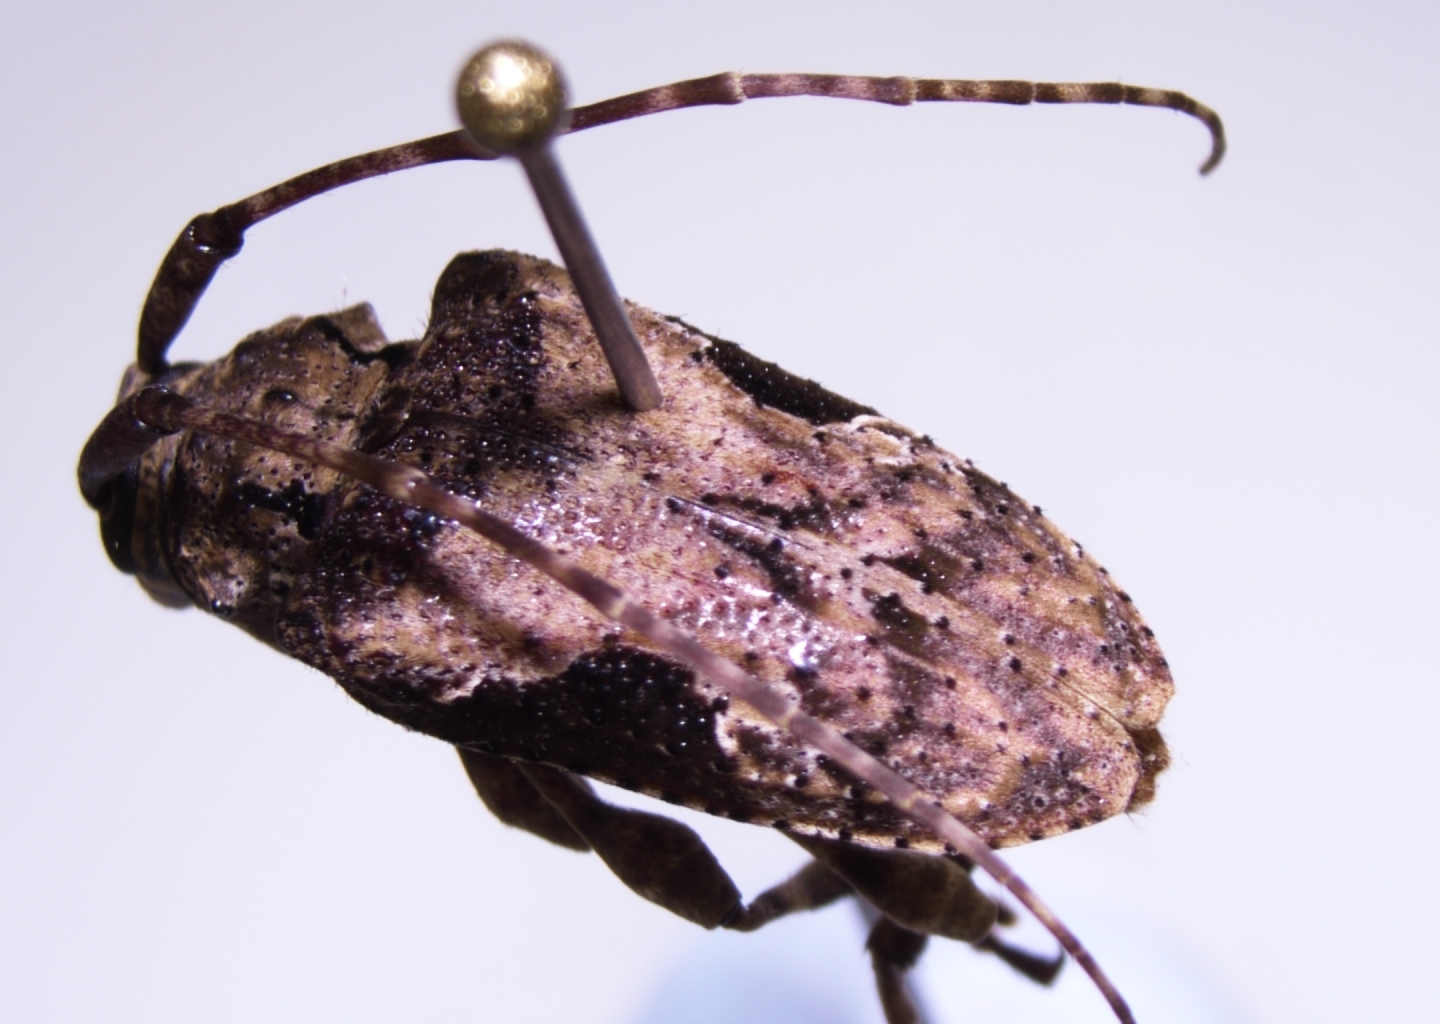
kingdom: Animalia
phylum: Arthropoda
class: Insecta
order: Coleoptera
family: Cerambycidae
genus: Lagocheirus
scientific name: Lagocheirus obsoletus
